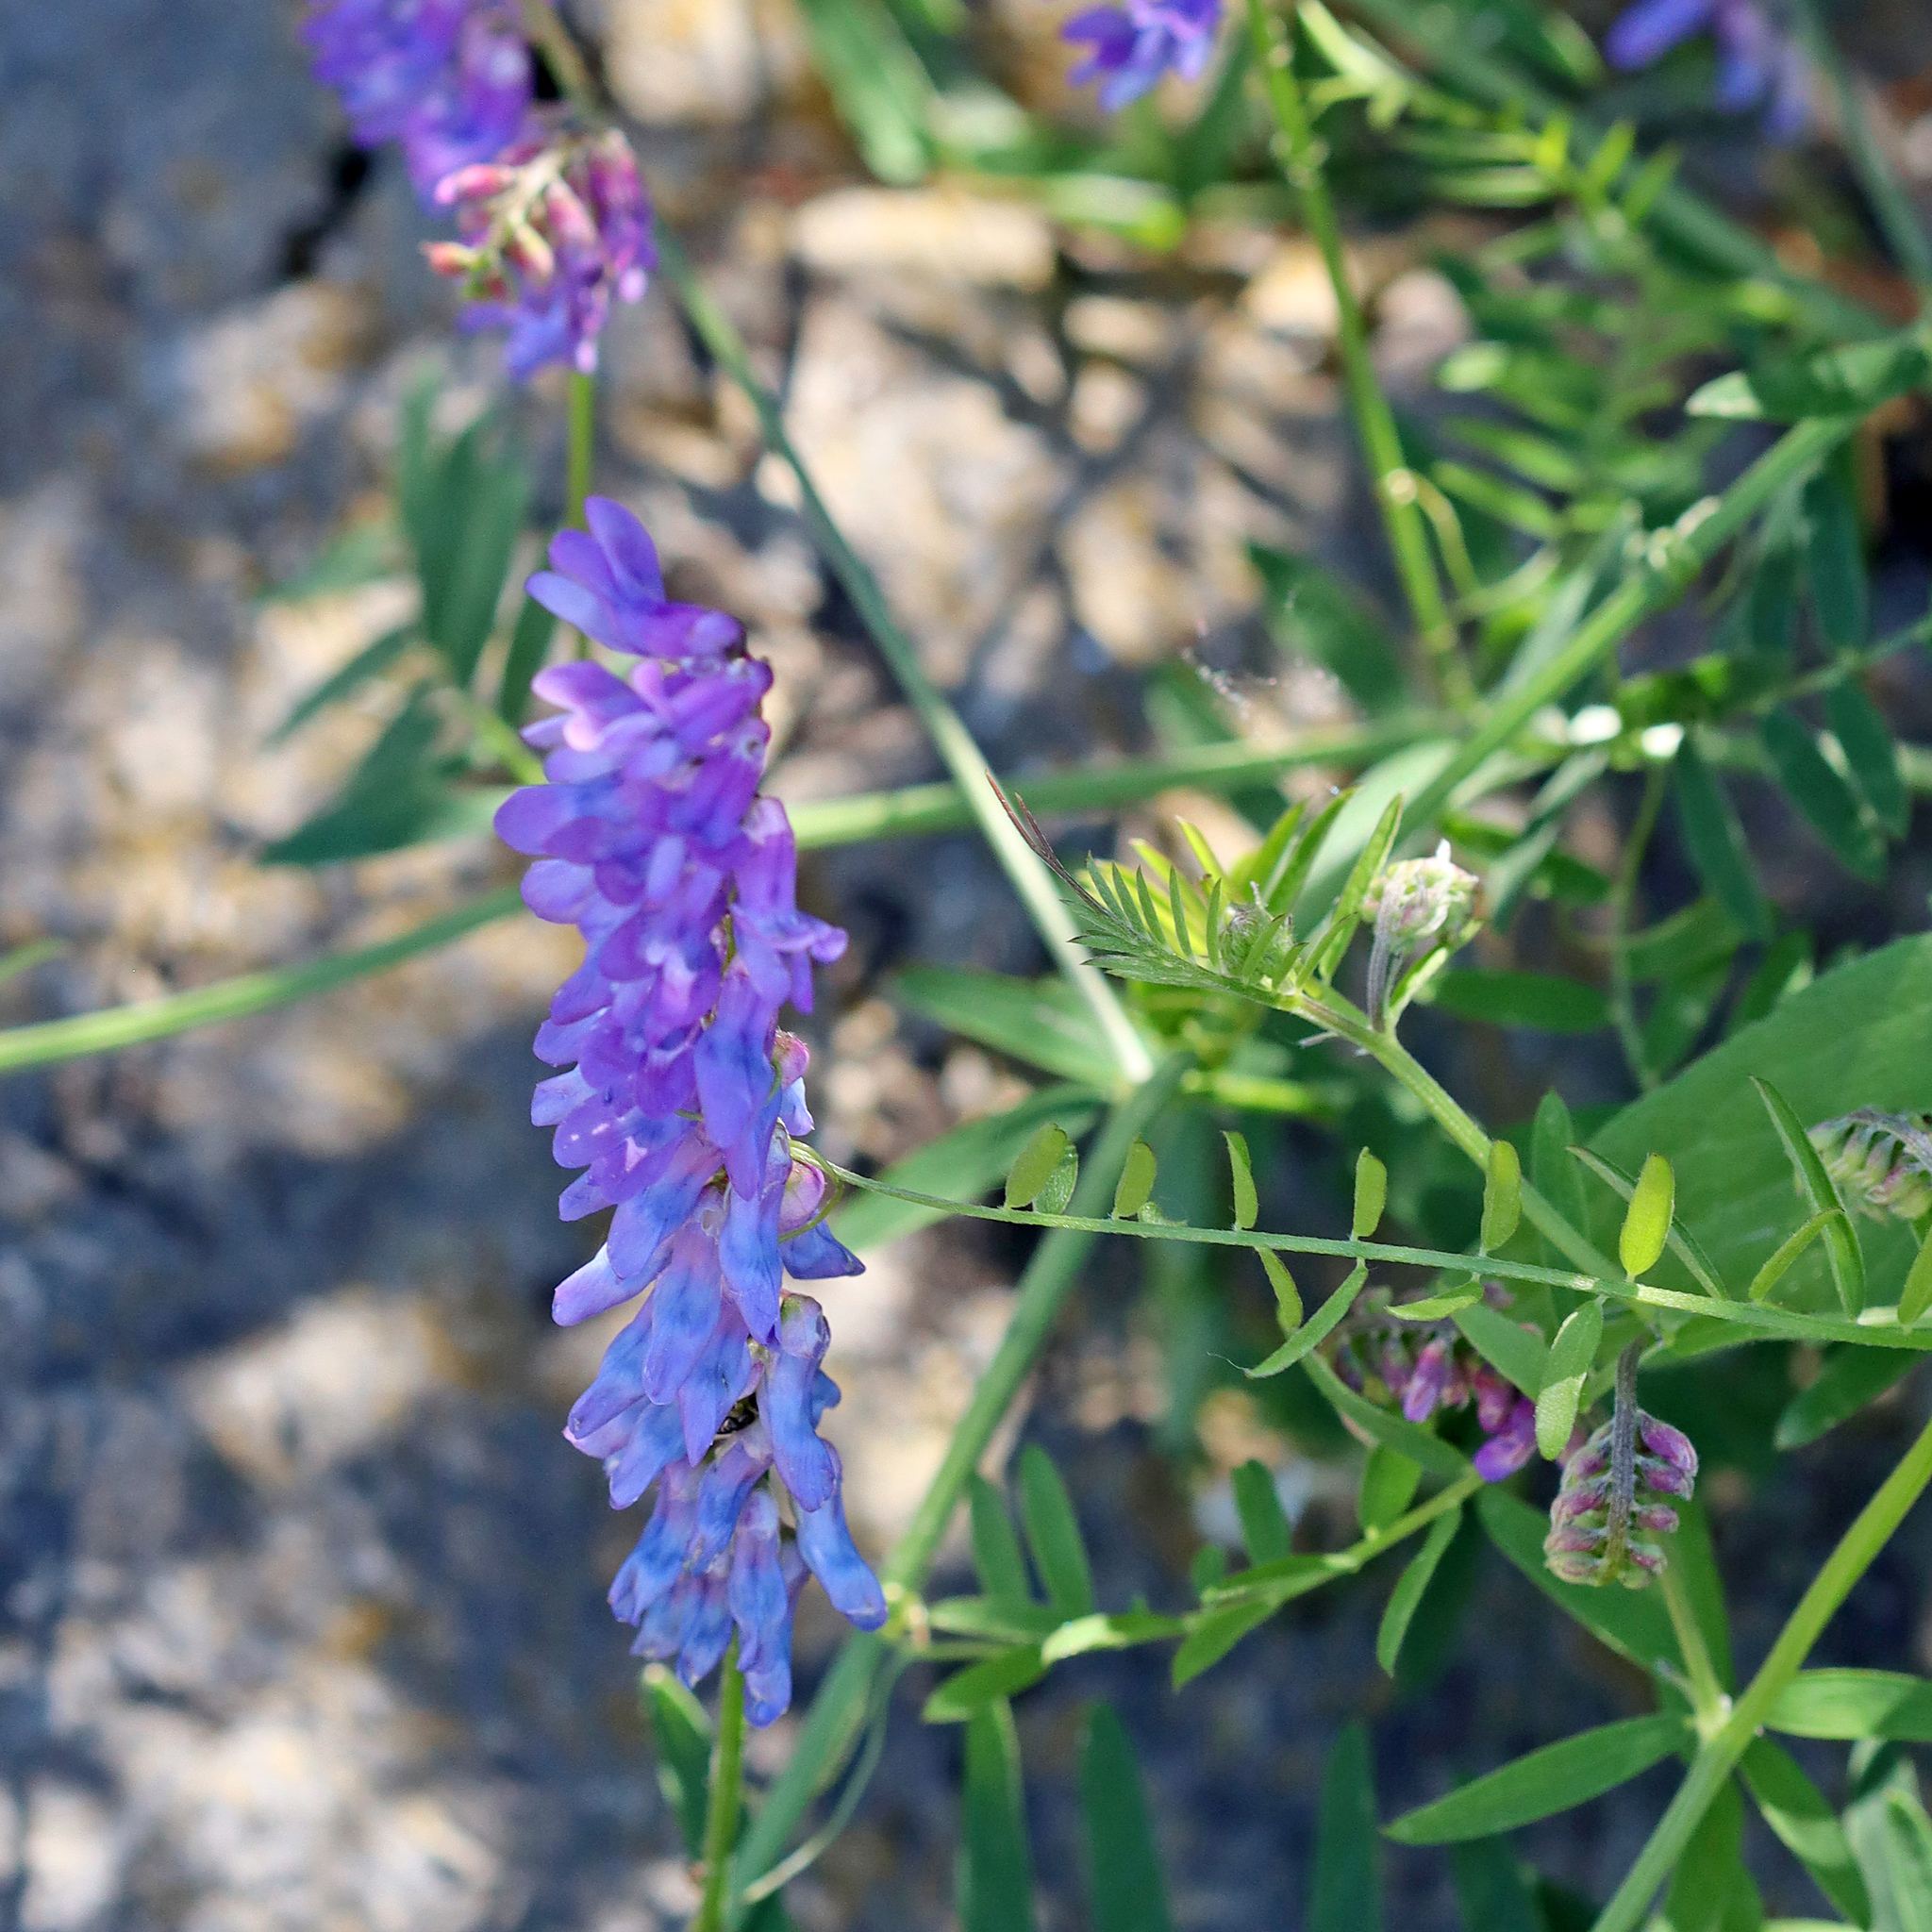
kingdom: Plantae
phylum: Tracheophyta
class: Magnoliopsida
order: Fabales
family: Fabaceae
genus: Vicia
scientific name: Vicia cracca
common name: Bird vetch
